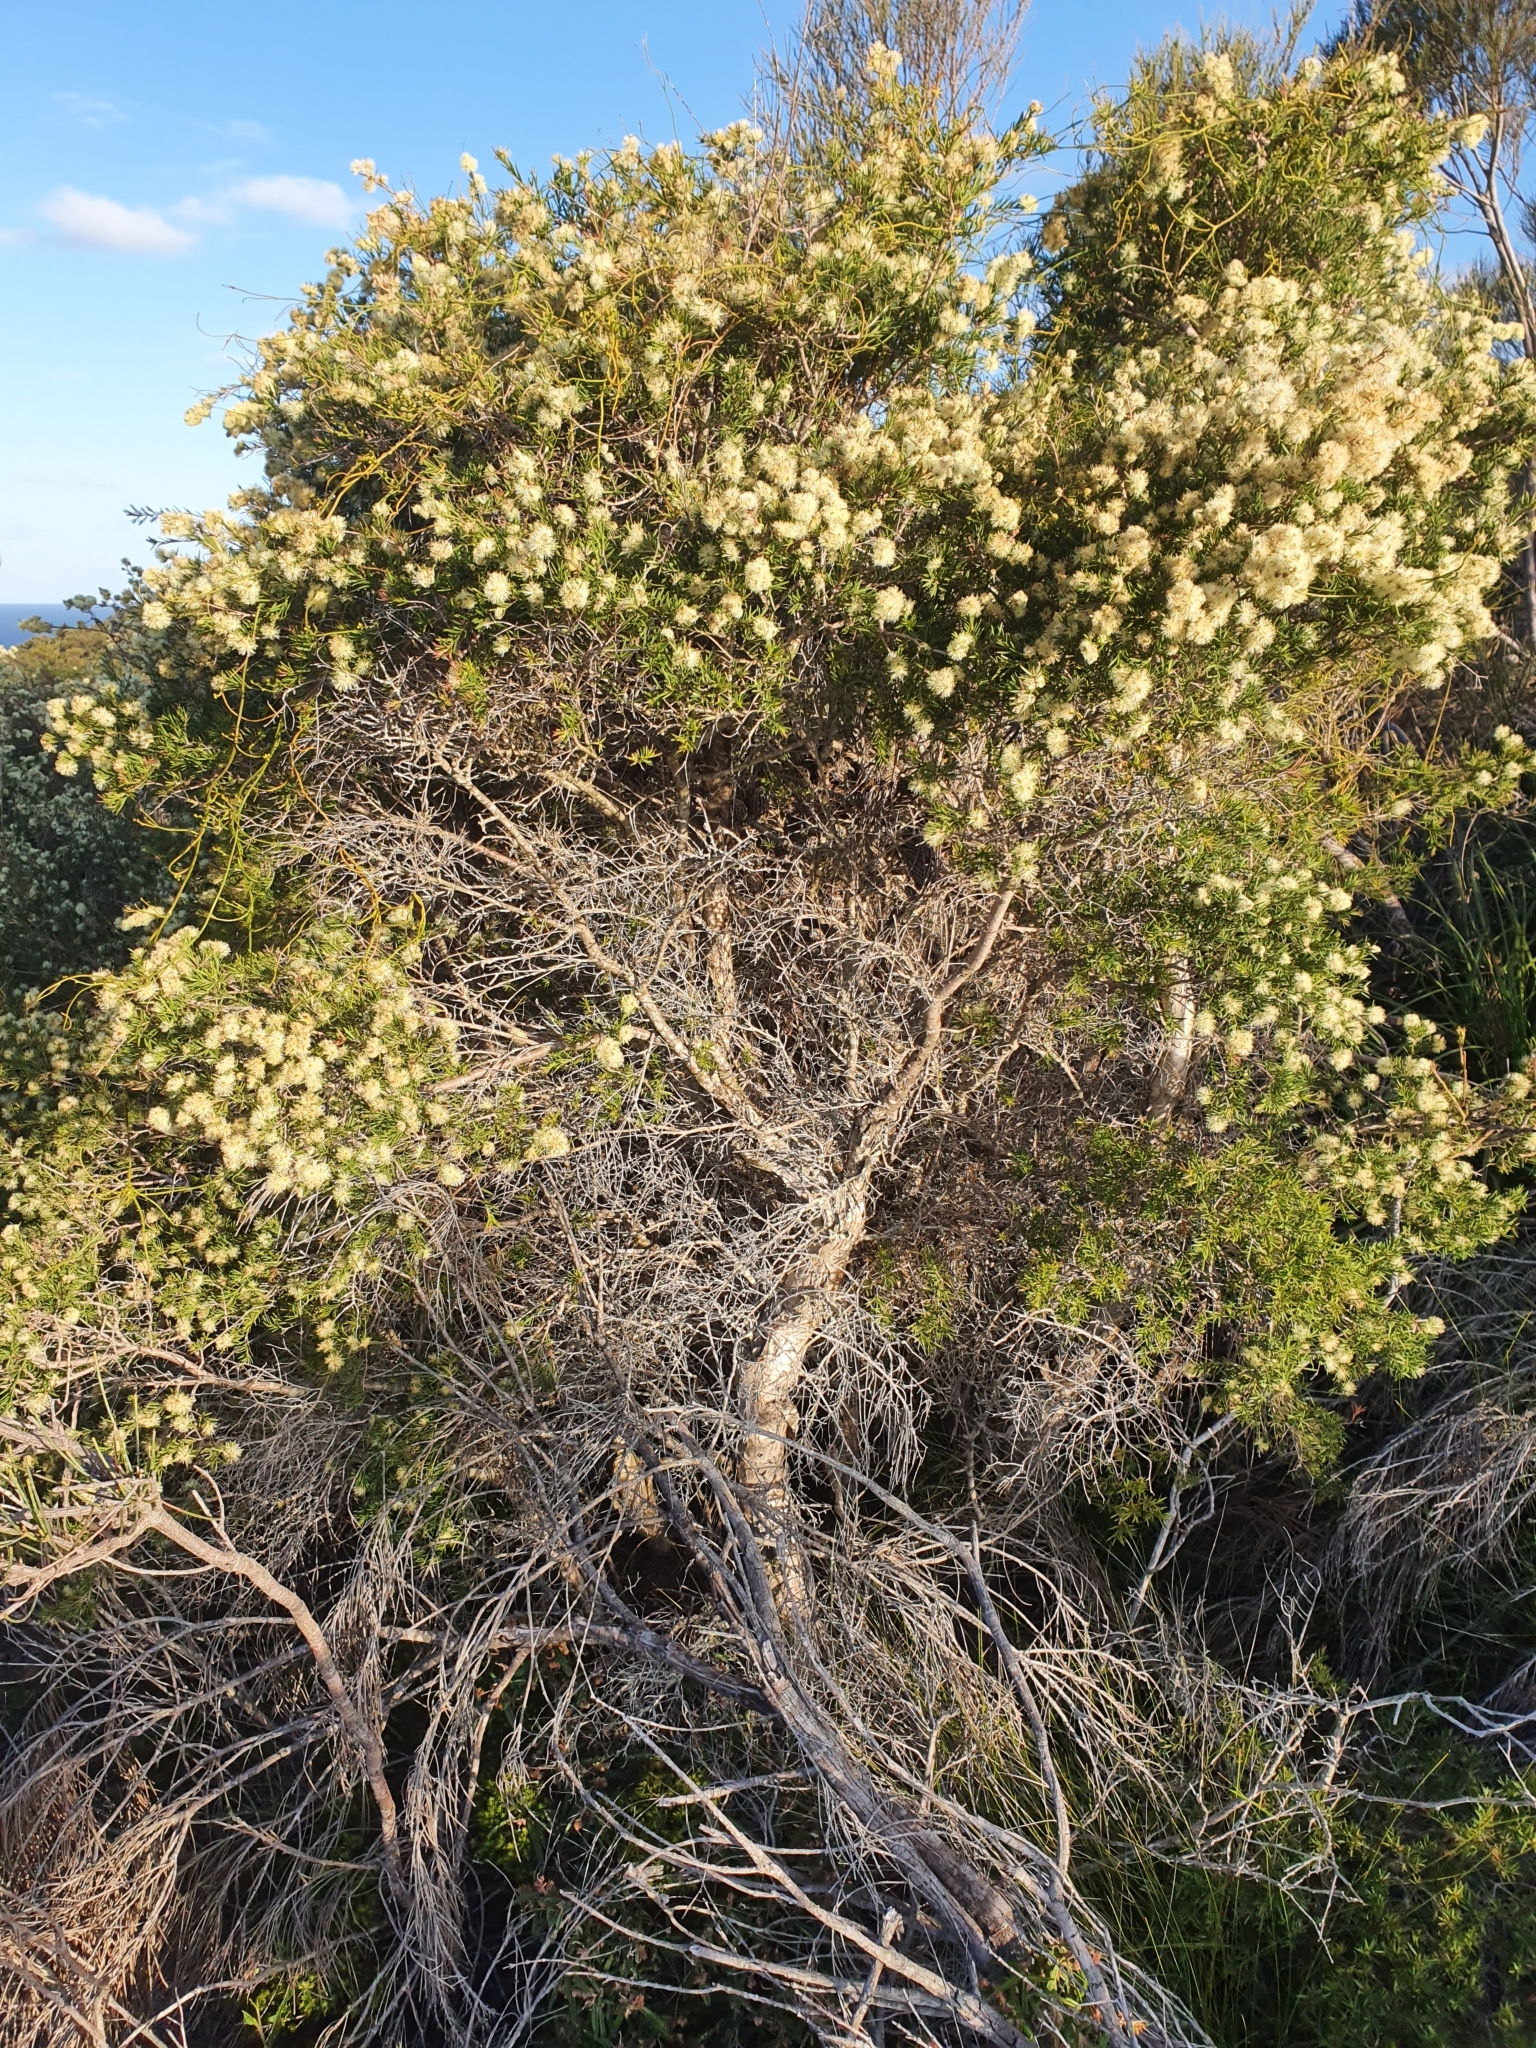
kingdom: Plantae
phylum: Tracheophyta
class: Magnoliopsida
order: Myrtales
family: Myrtaceae
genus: Melaleuca
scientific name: Melaleuca nodosa
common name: Prickly-leaf paperbark
